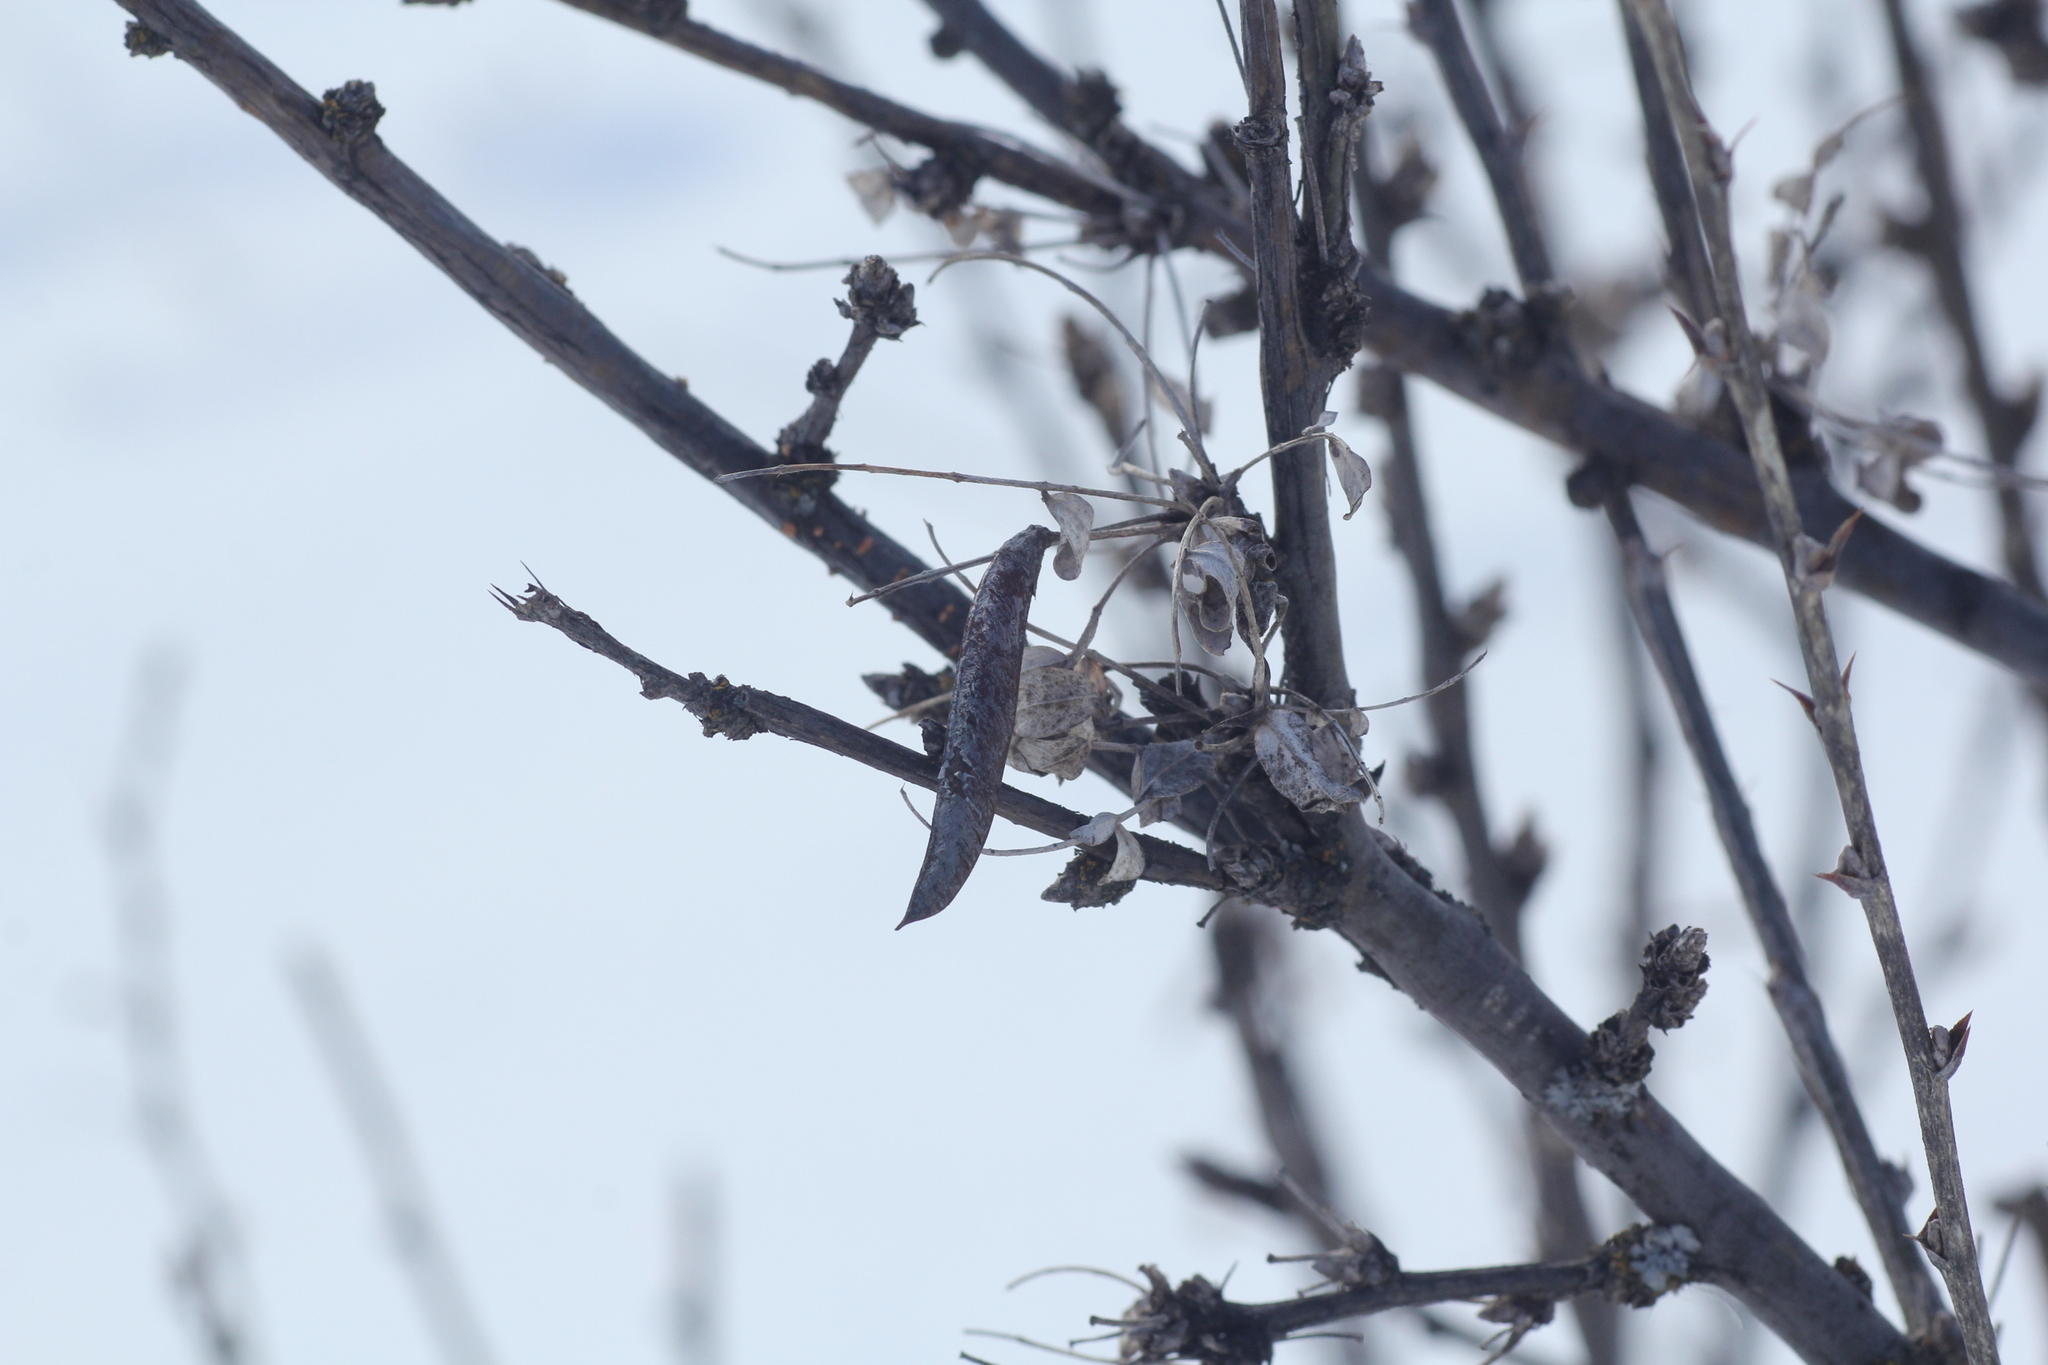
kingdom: Plantae
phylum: Tracheophyta
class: Magnoliopsida
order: Fabales
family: Fabaceae
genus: Caragana
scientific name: Caragana arborescens
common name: Siberian peashrub
